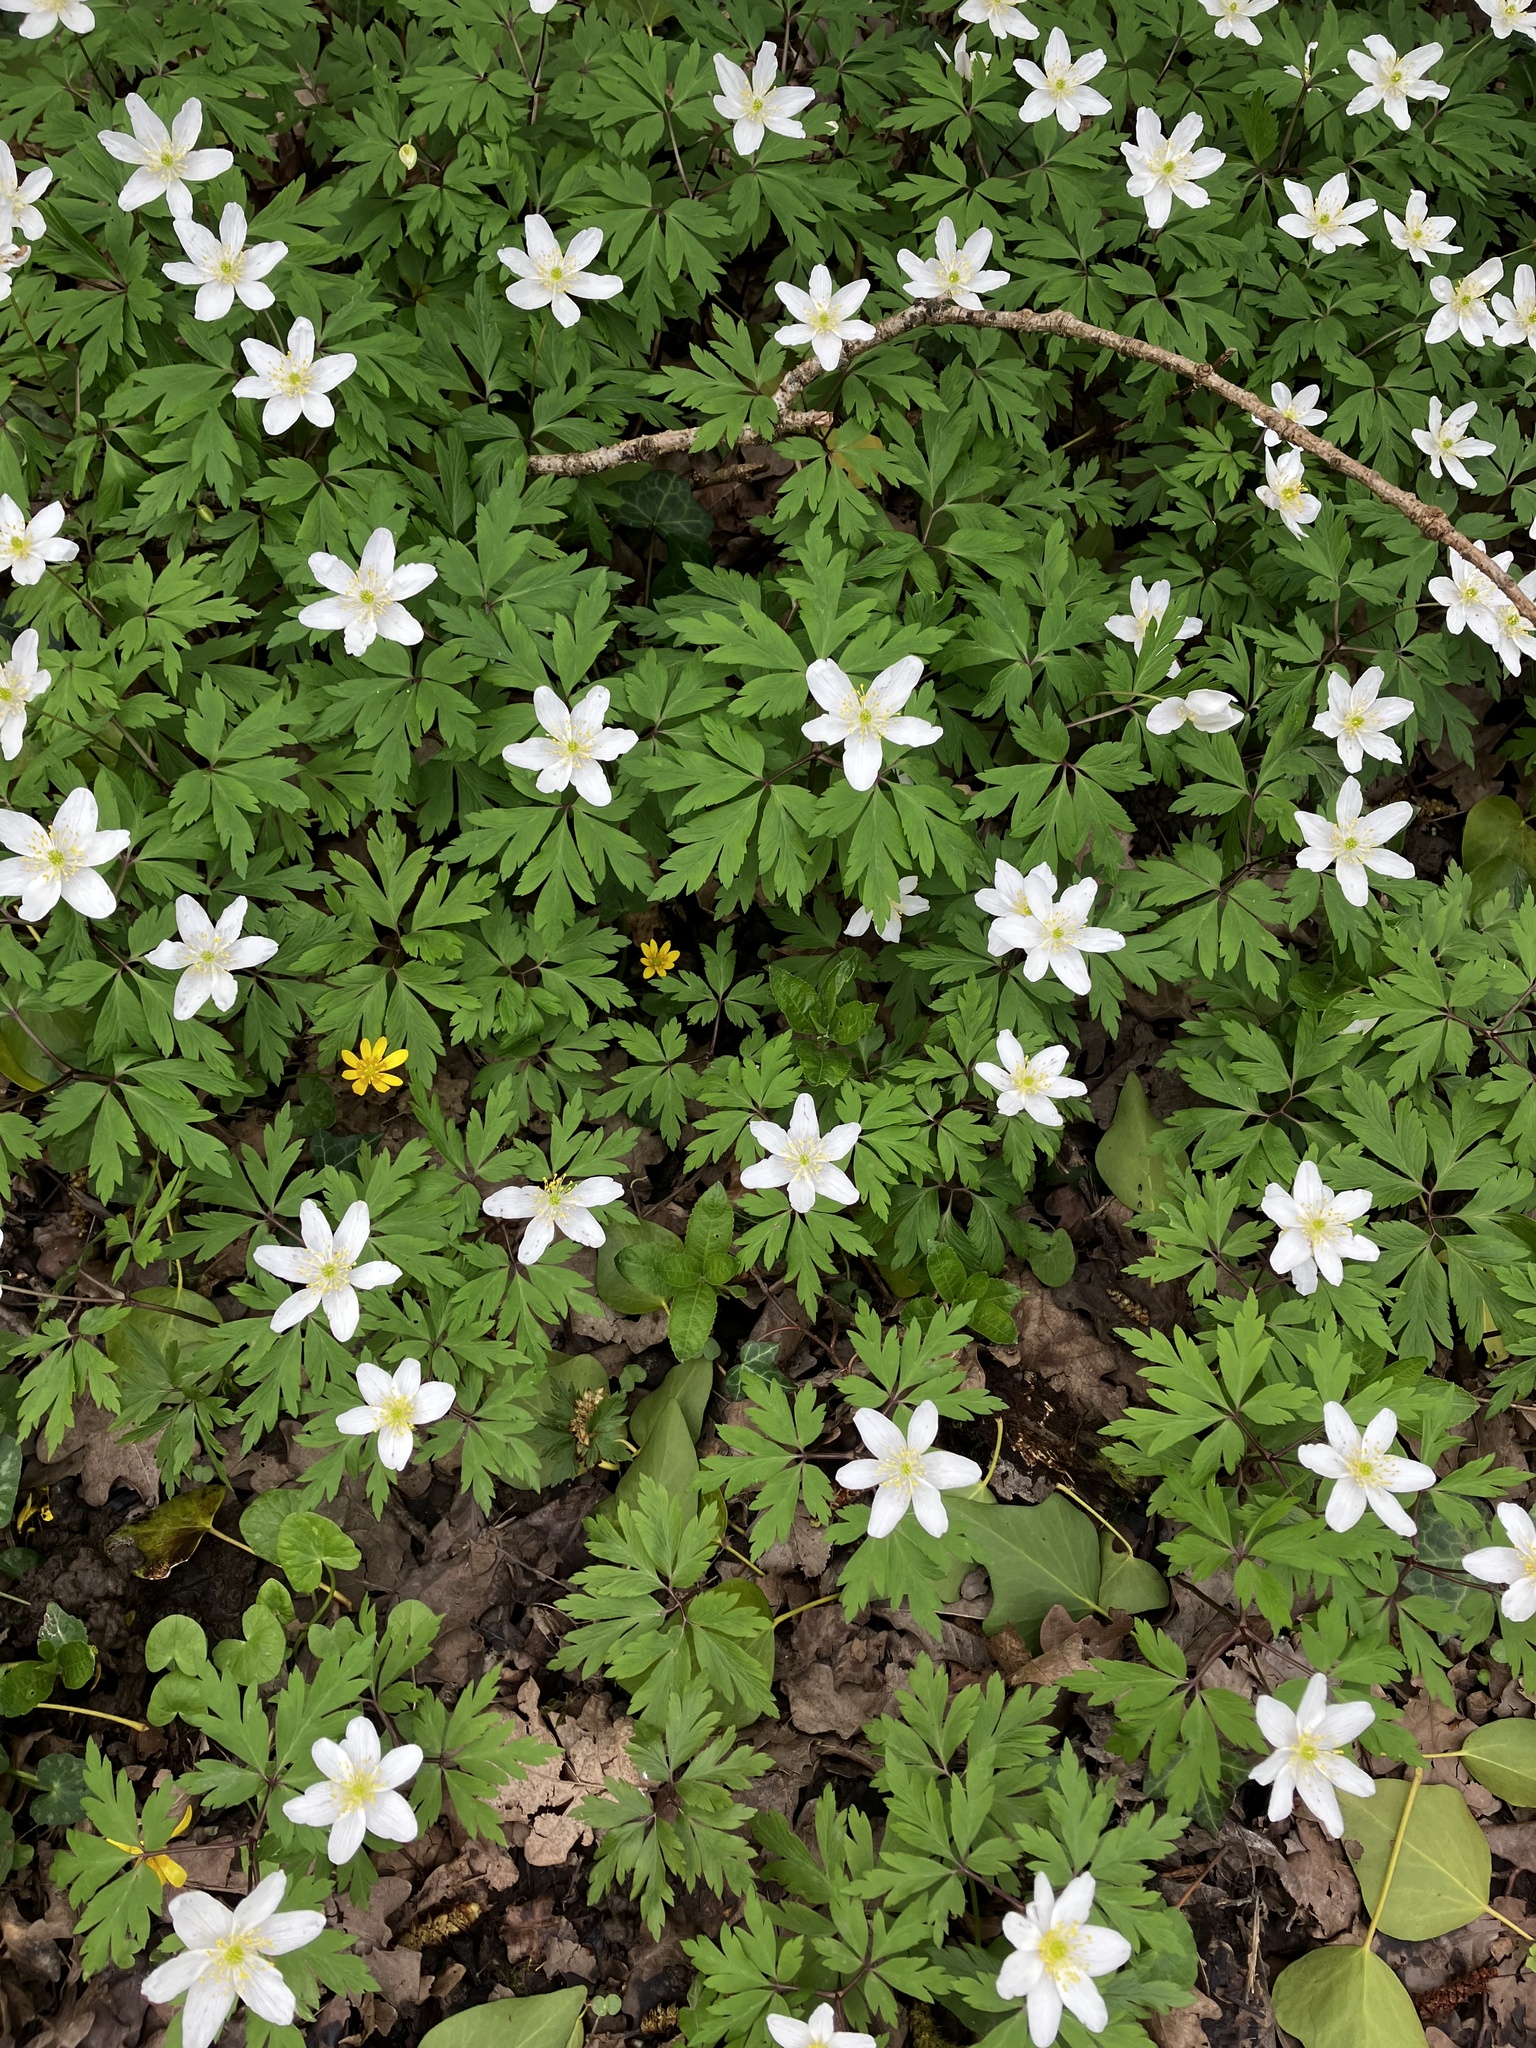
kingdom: Plantae
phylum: Tracheophyta
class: Magnoliopsida
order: Ranunculales
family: Ranunculaceae
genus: Anemone
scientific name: Anemone nemorosa
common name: Wood anemone
